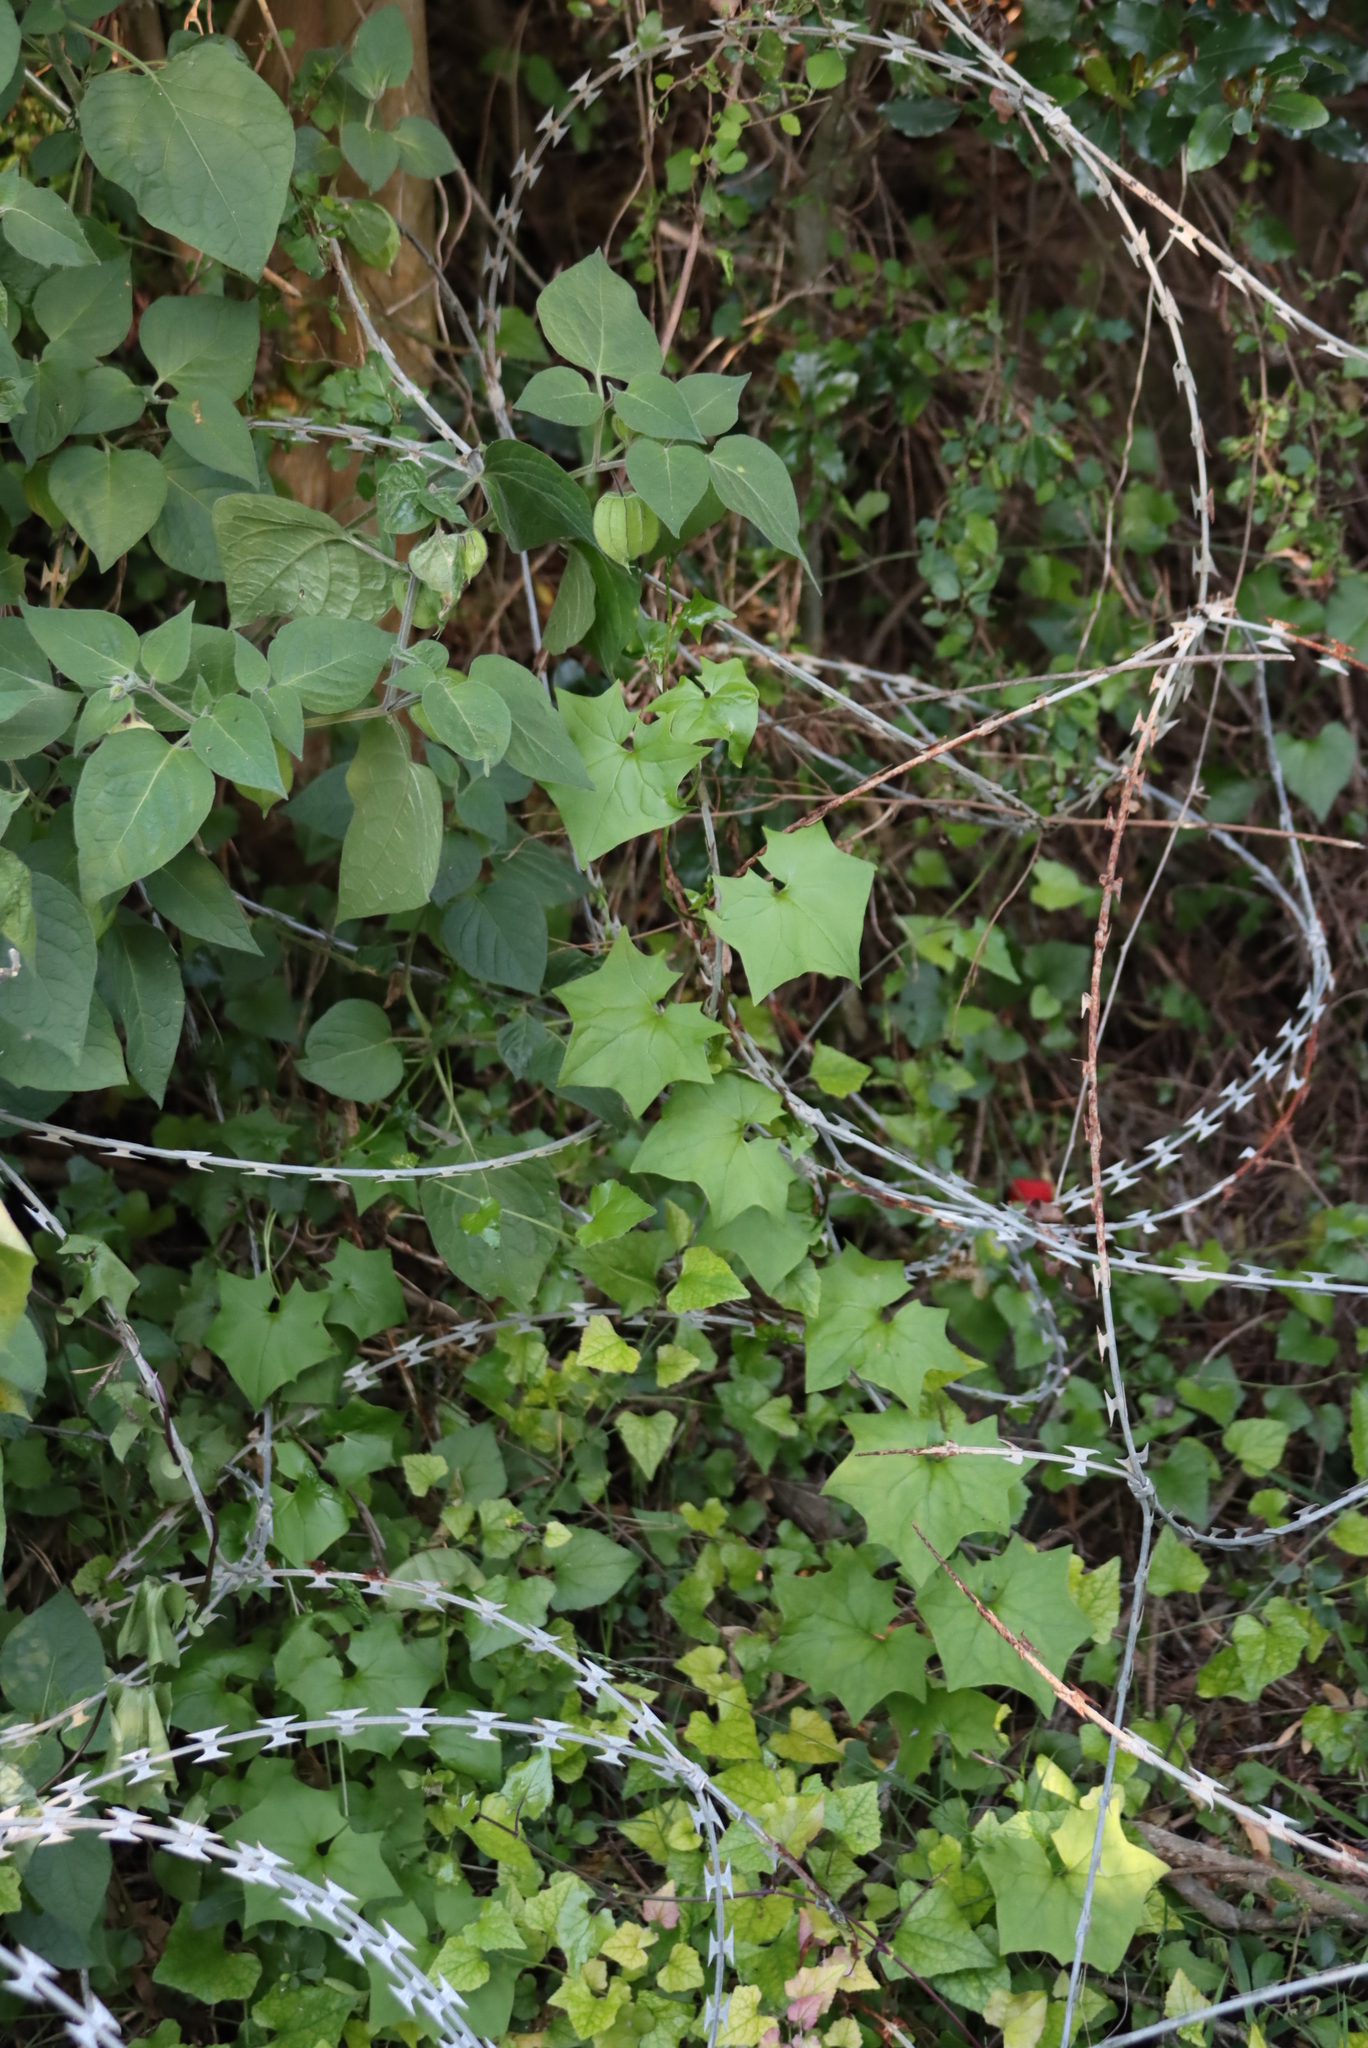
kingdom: Plantae
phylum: Tracheophyta
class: Magnoliopsida
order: Asterales
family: Asteraceae
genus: Senecio
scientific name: Senecio deltoideus
